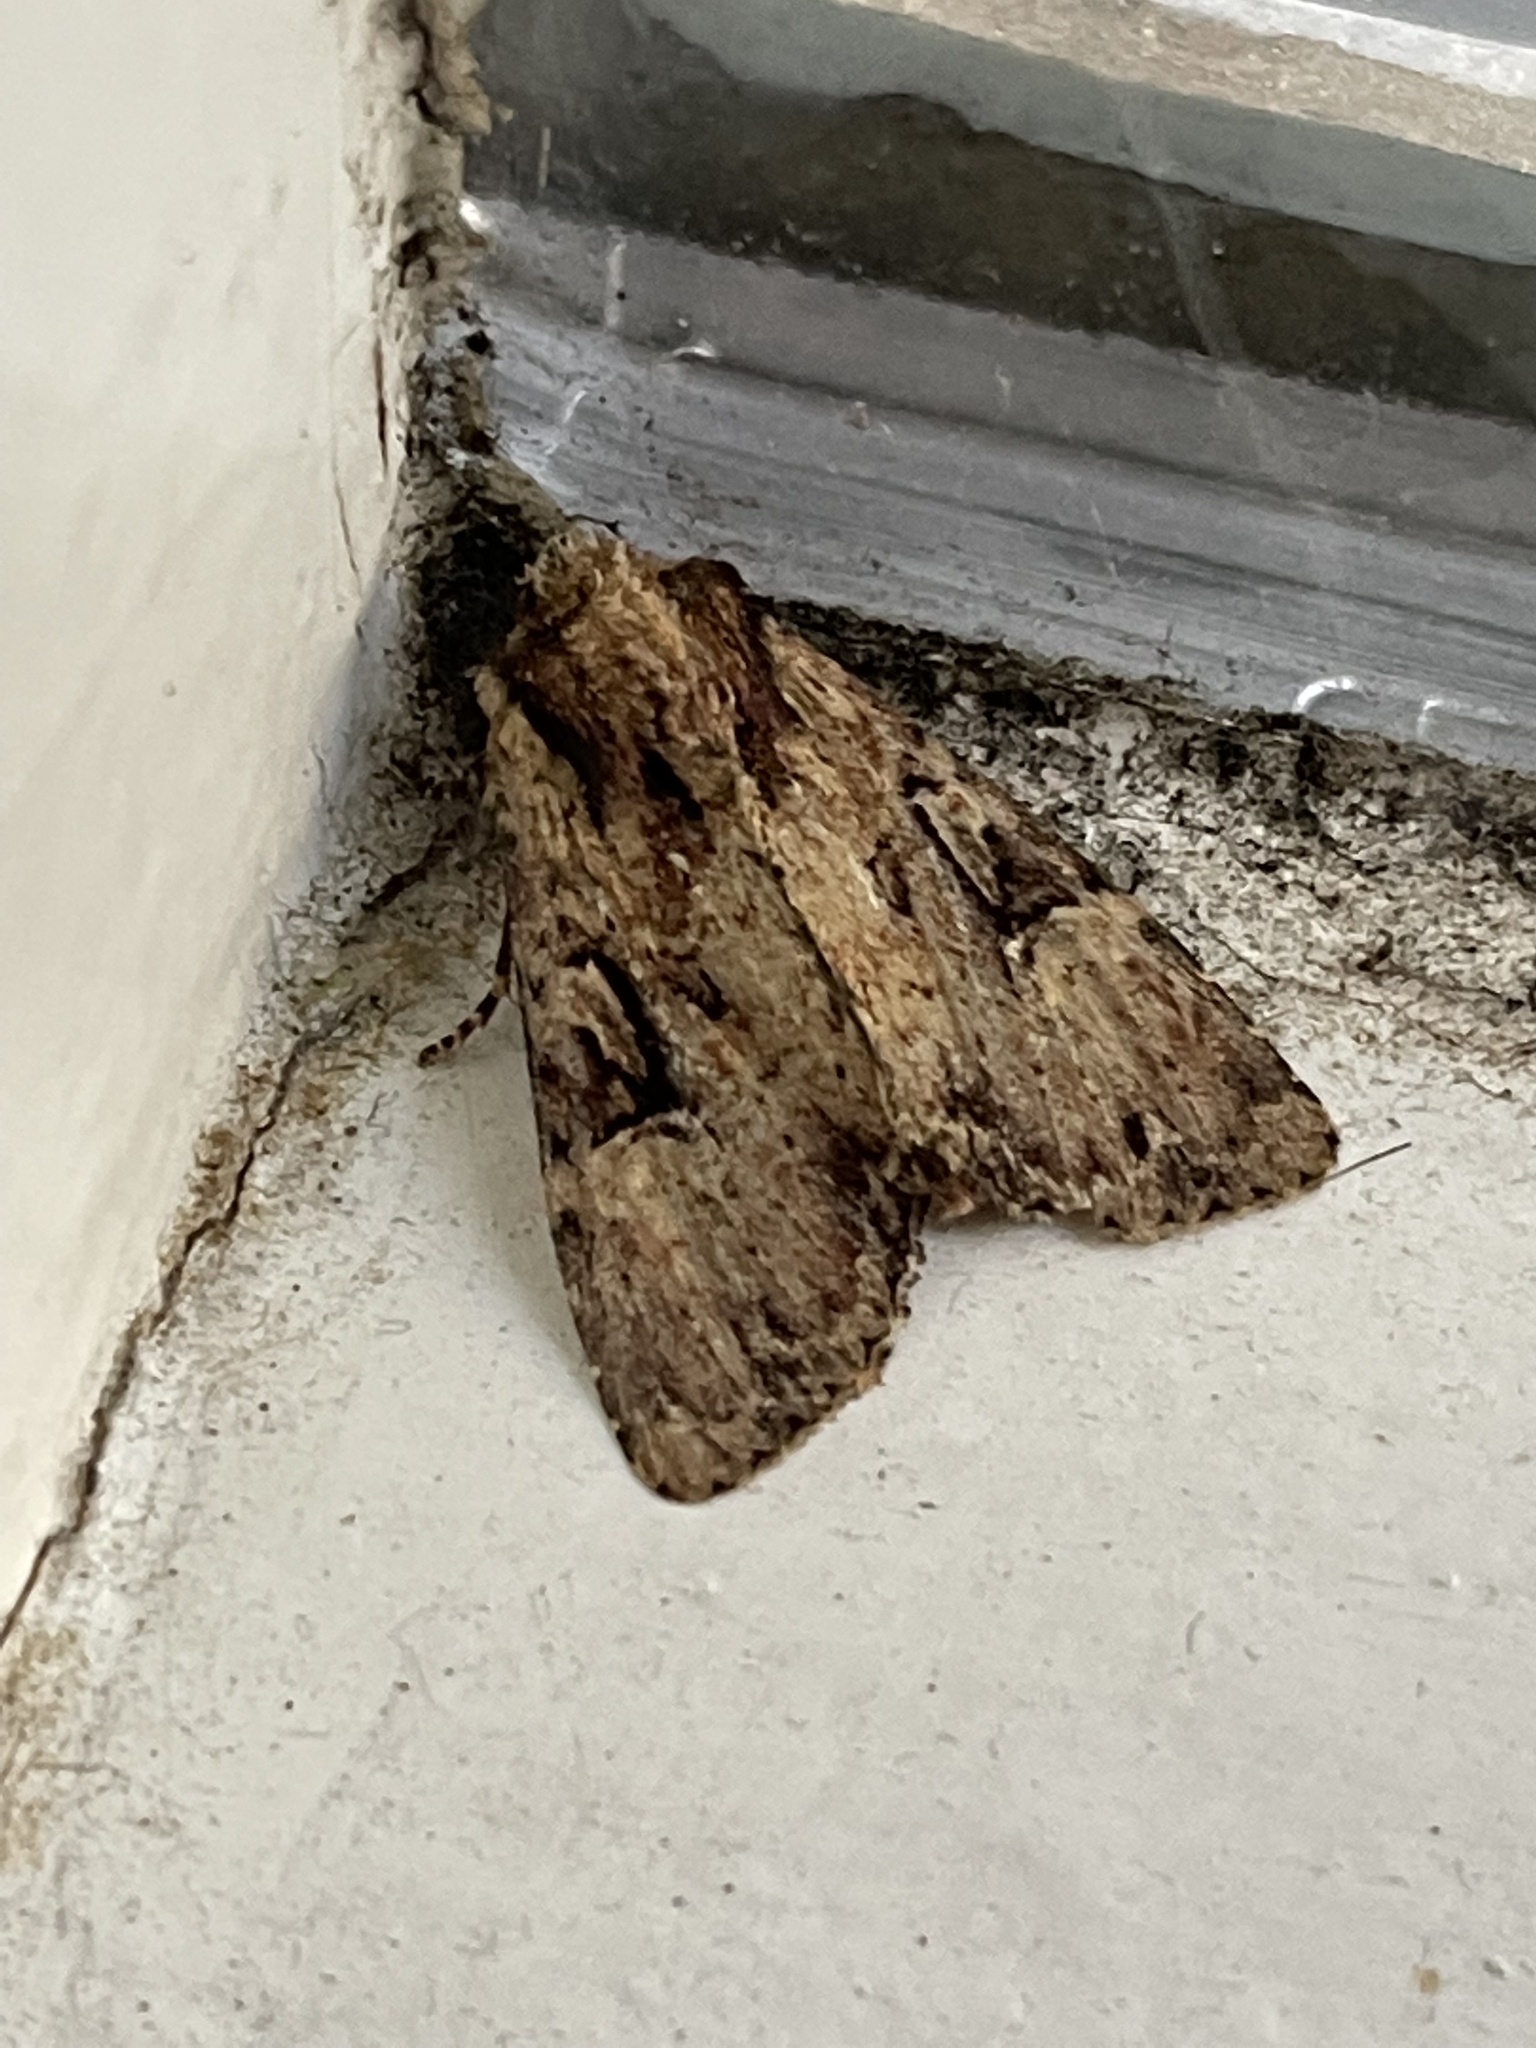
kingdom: Animalia
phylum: Arthropoda
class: Insecta
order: Lepidoptera
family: Noctuidae
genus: Apamea
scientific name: Apamea epomidion
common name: Clouded brindle
